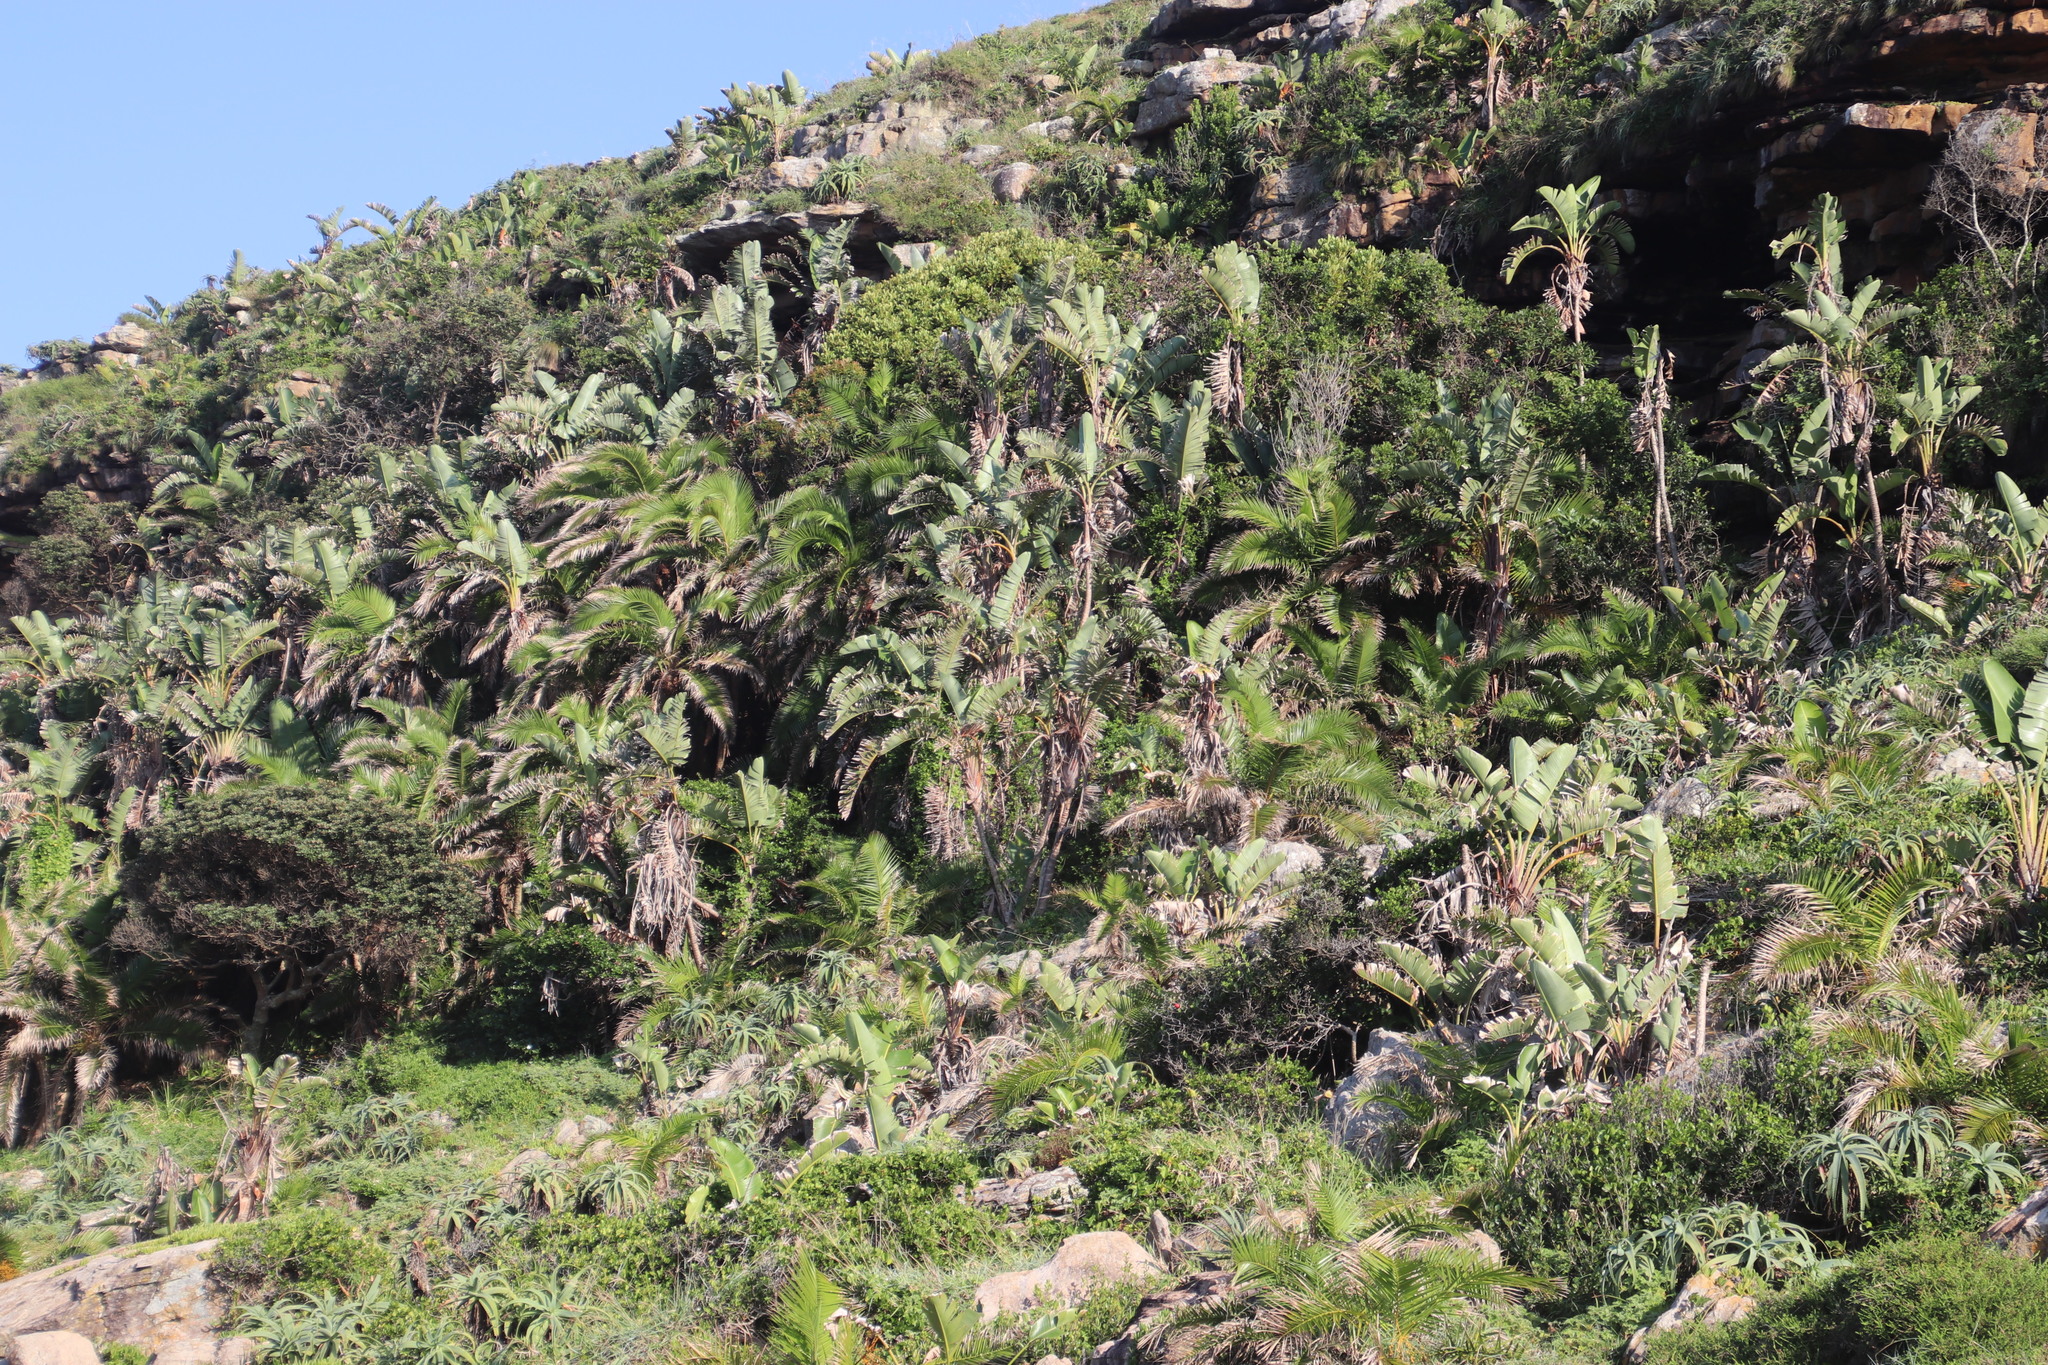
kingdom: Plantae
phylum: Tracheophyta
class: Liliopsida
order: Zingiberales
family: Strelitziaceae
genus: Strelitzia
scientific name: Strelitzia nicolai
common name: Bird-of-paradise tree
